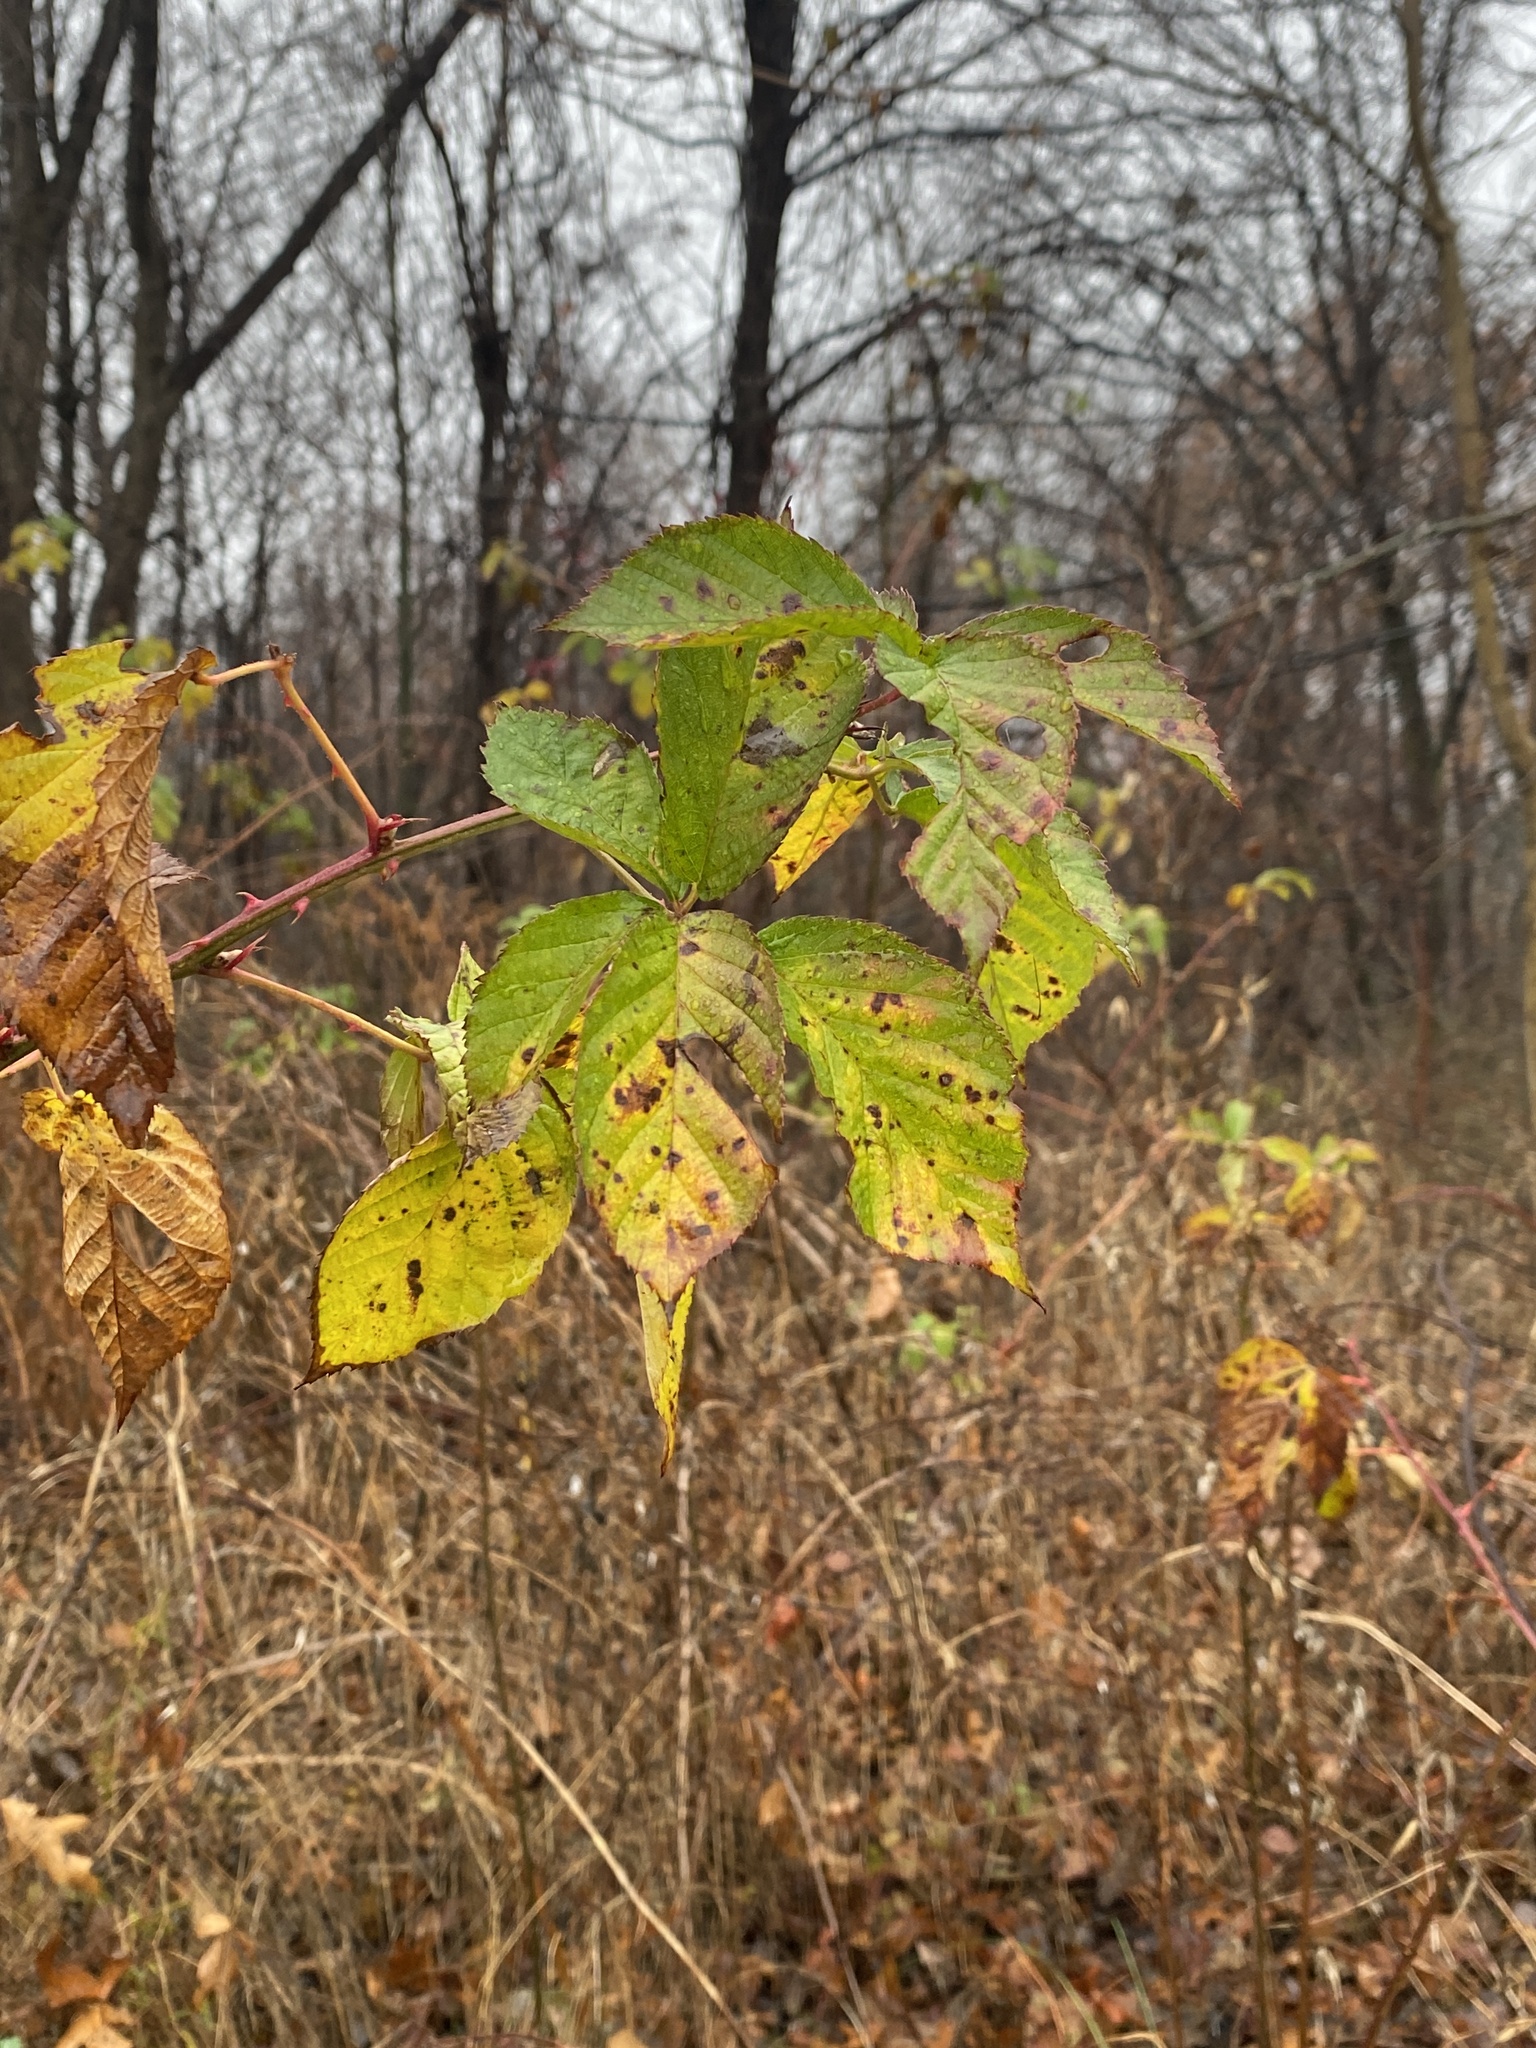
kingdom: Plantae
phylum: Tracheophyta
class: Magnoliopsida
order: Rosales
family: Rosaceae
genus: Rubus
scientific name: Rubus allegheniensis
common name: Allegheny blackberry
